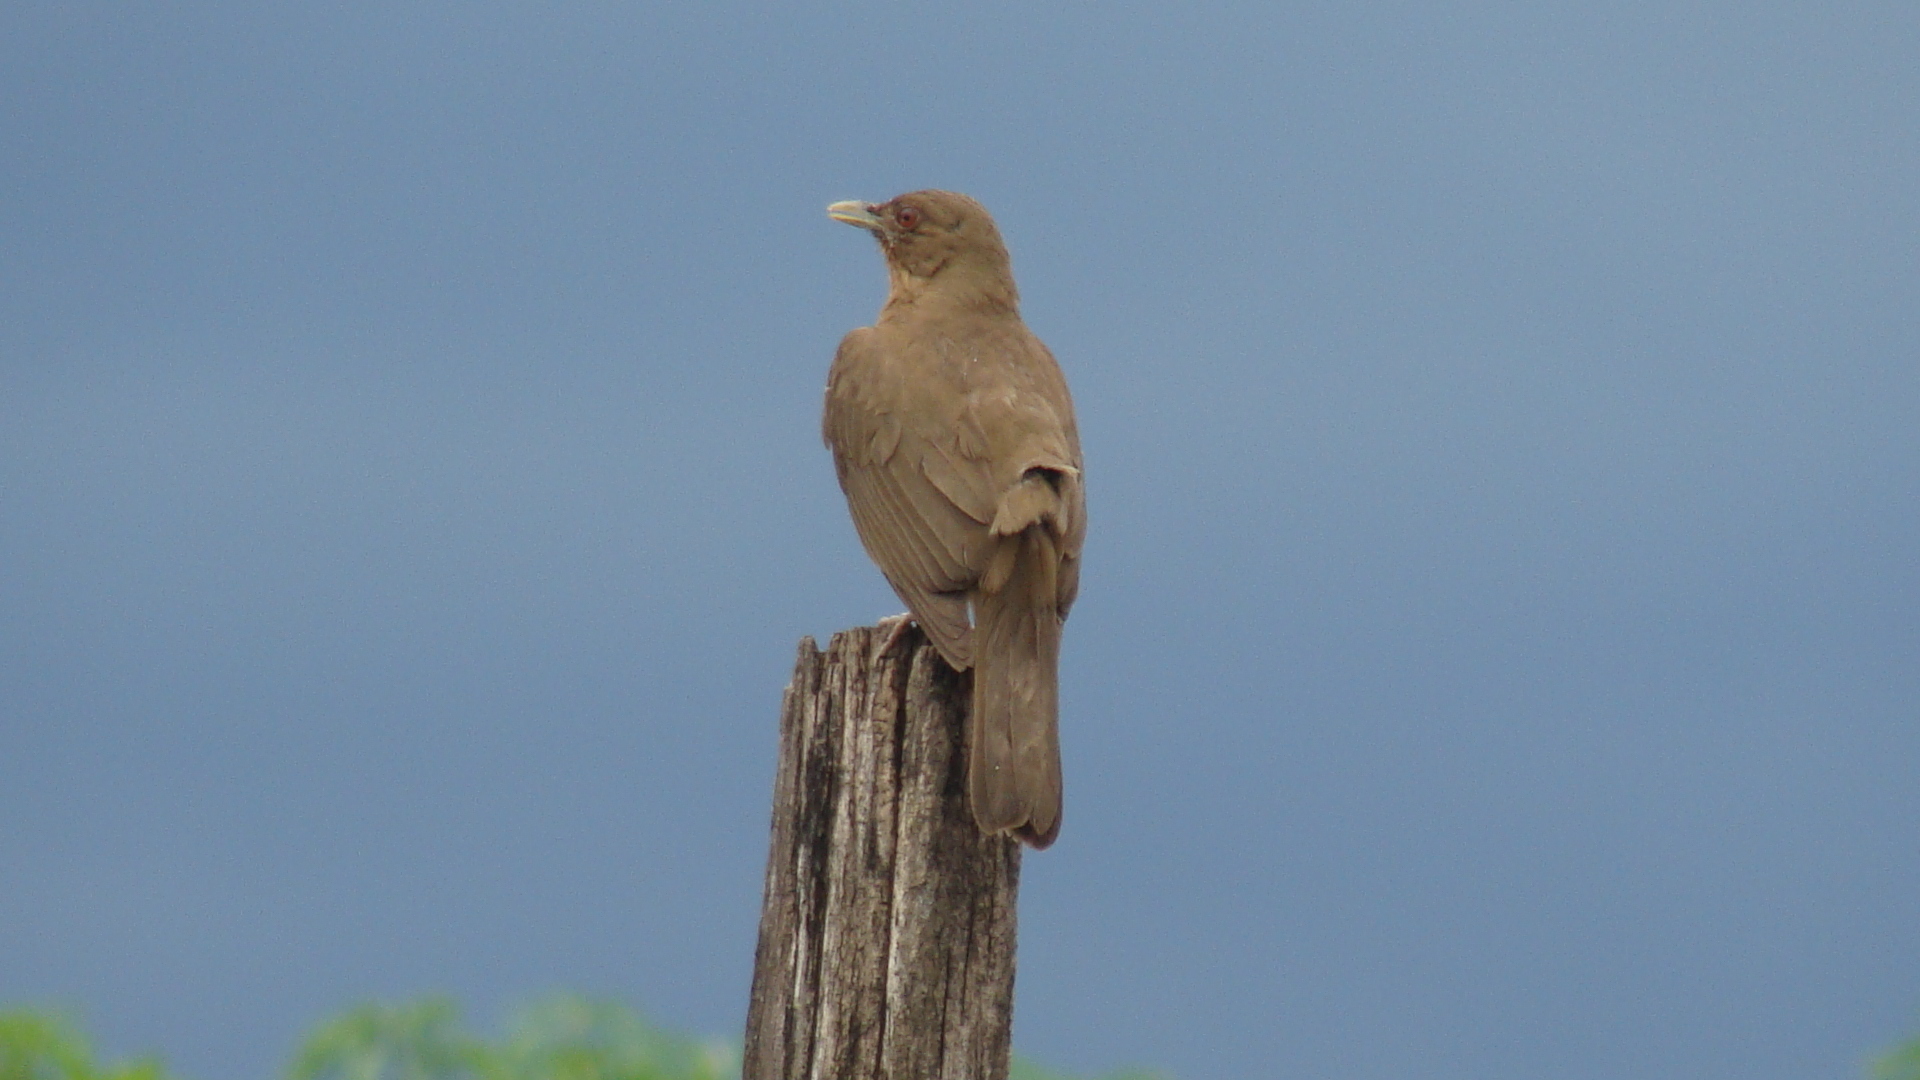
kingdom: Animalia
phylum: Chordata
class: Aves
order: Passeriformes
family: Turdidae
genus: Turdus
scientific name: Turdus grayi
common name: Clay-colored thrush
